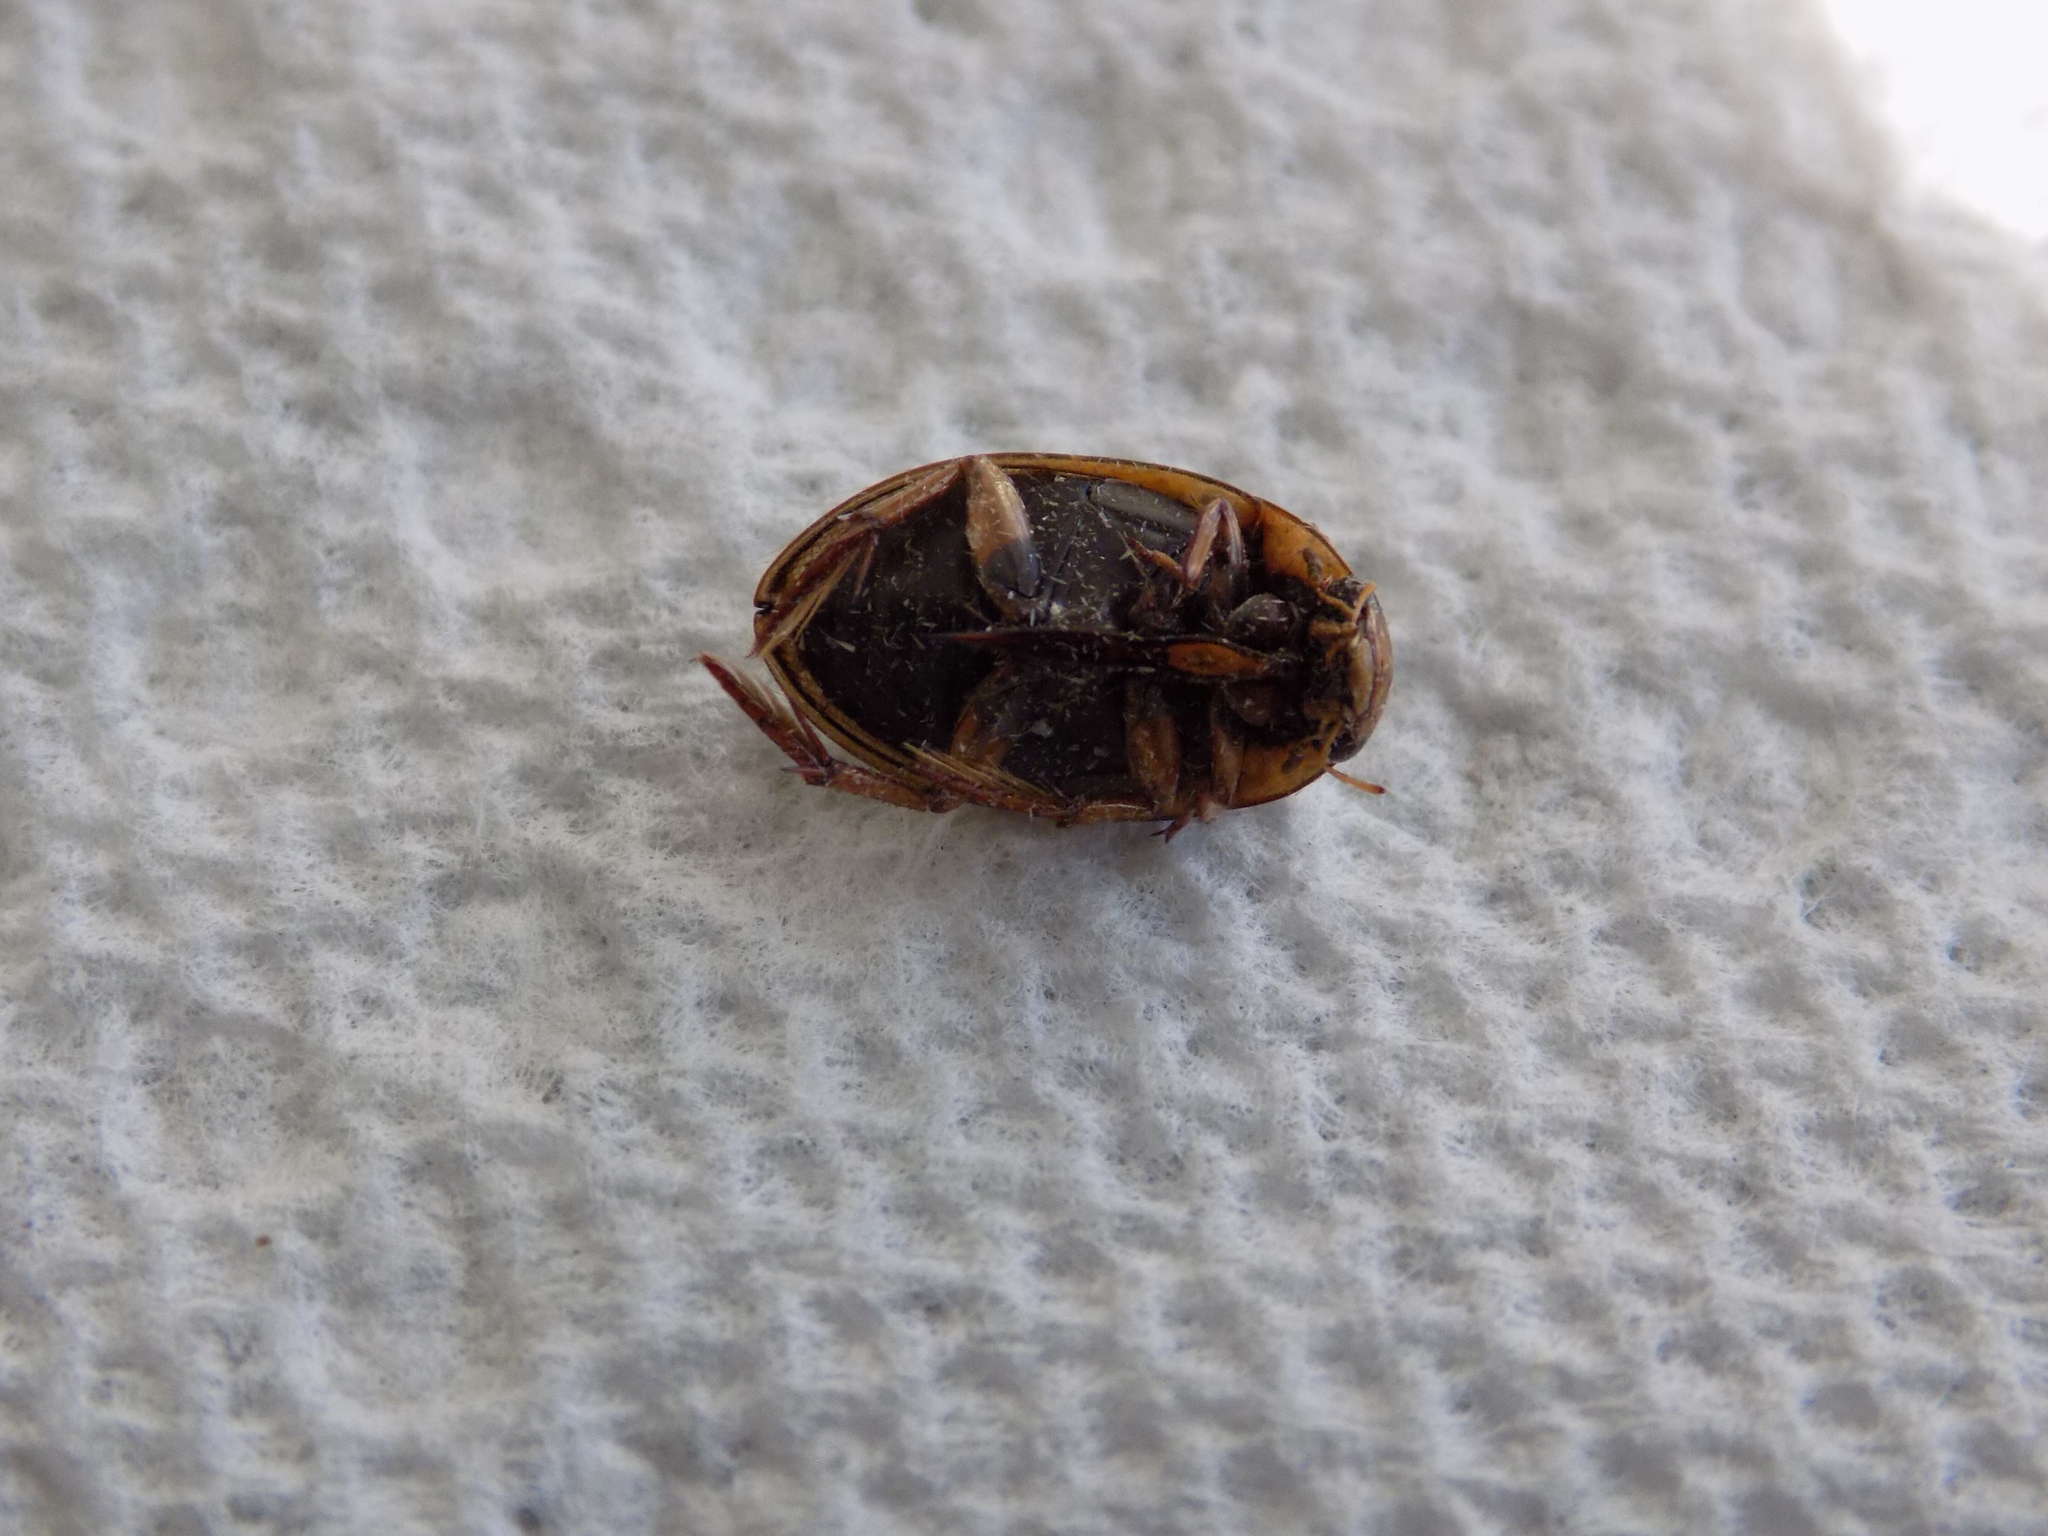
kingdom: Animalia
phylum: Arthropoda
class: Insecta
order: Coleoptera
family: Hydrophilidae
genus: Tropisternus
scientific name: Tropisternus collaris
